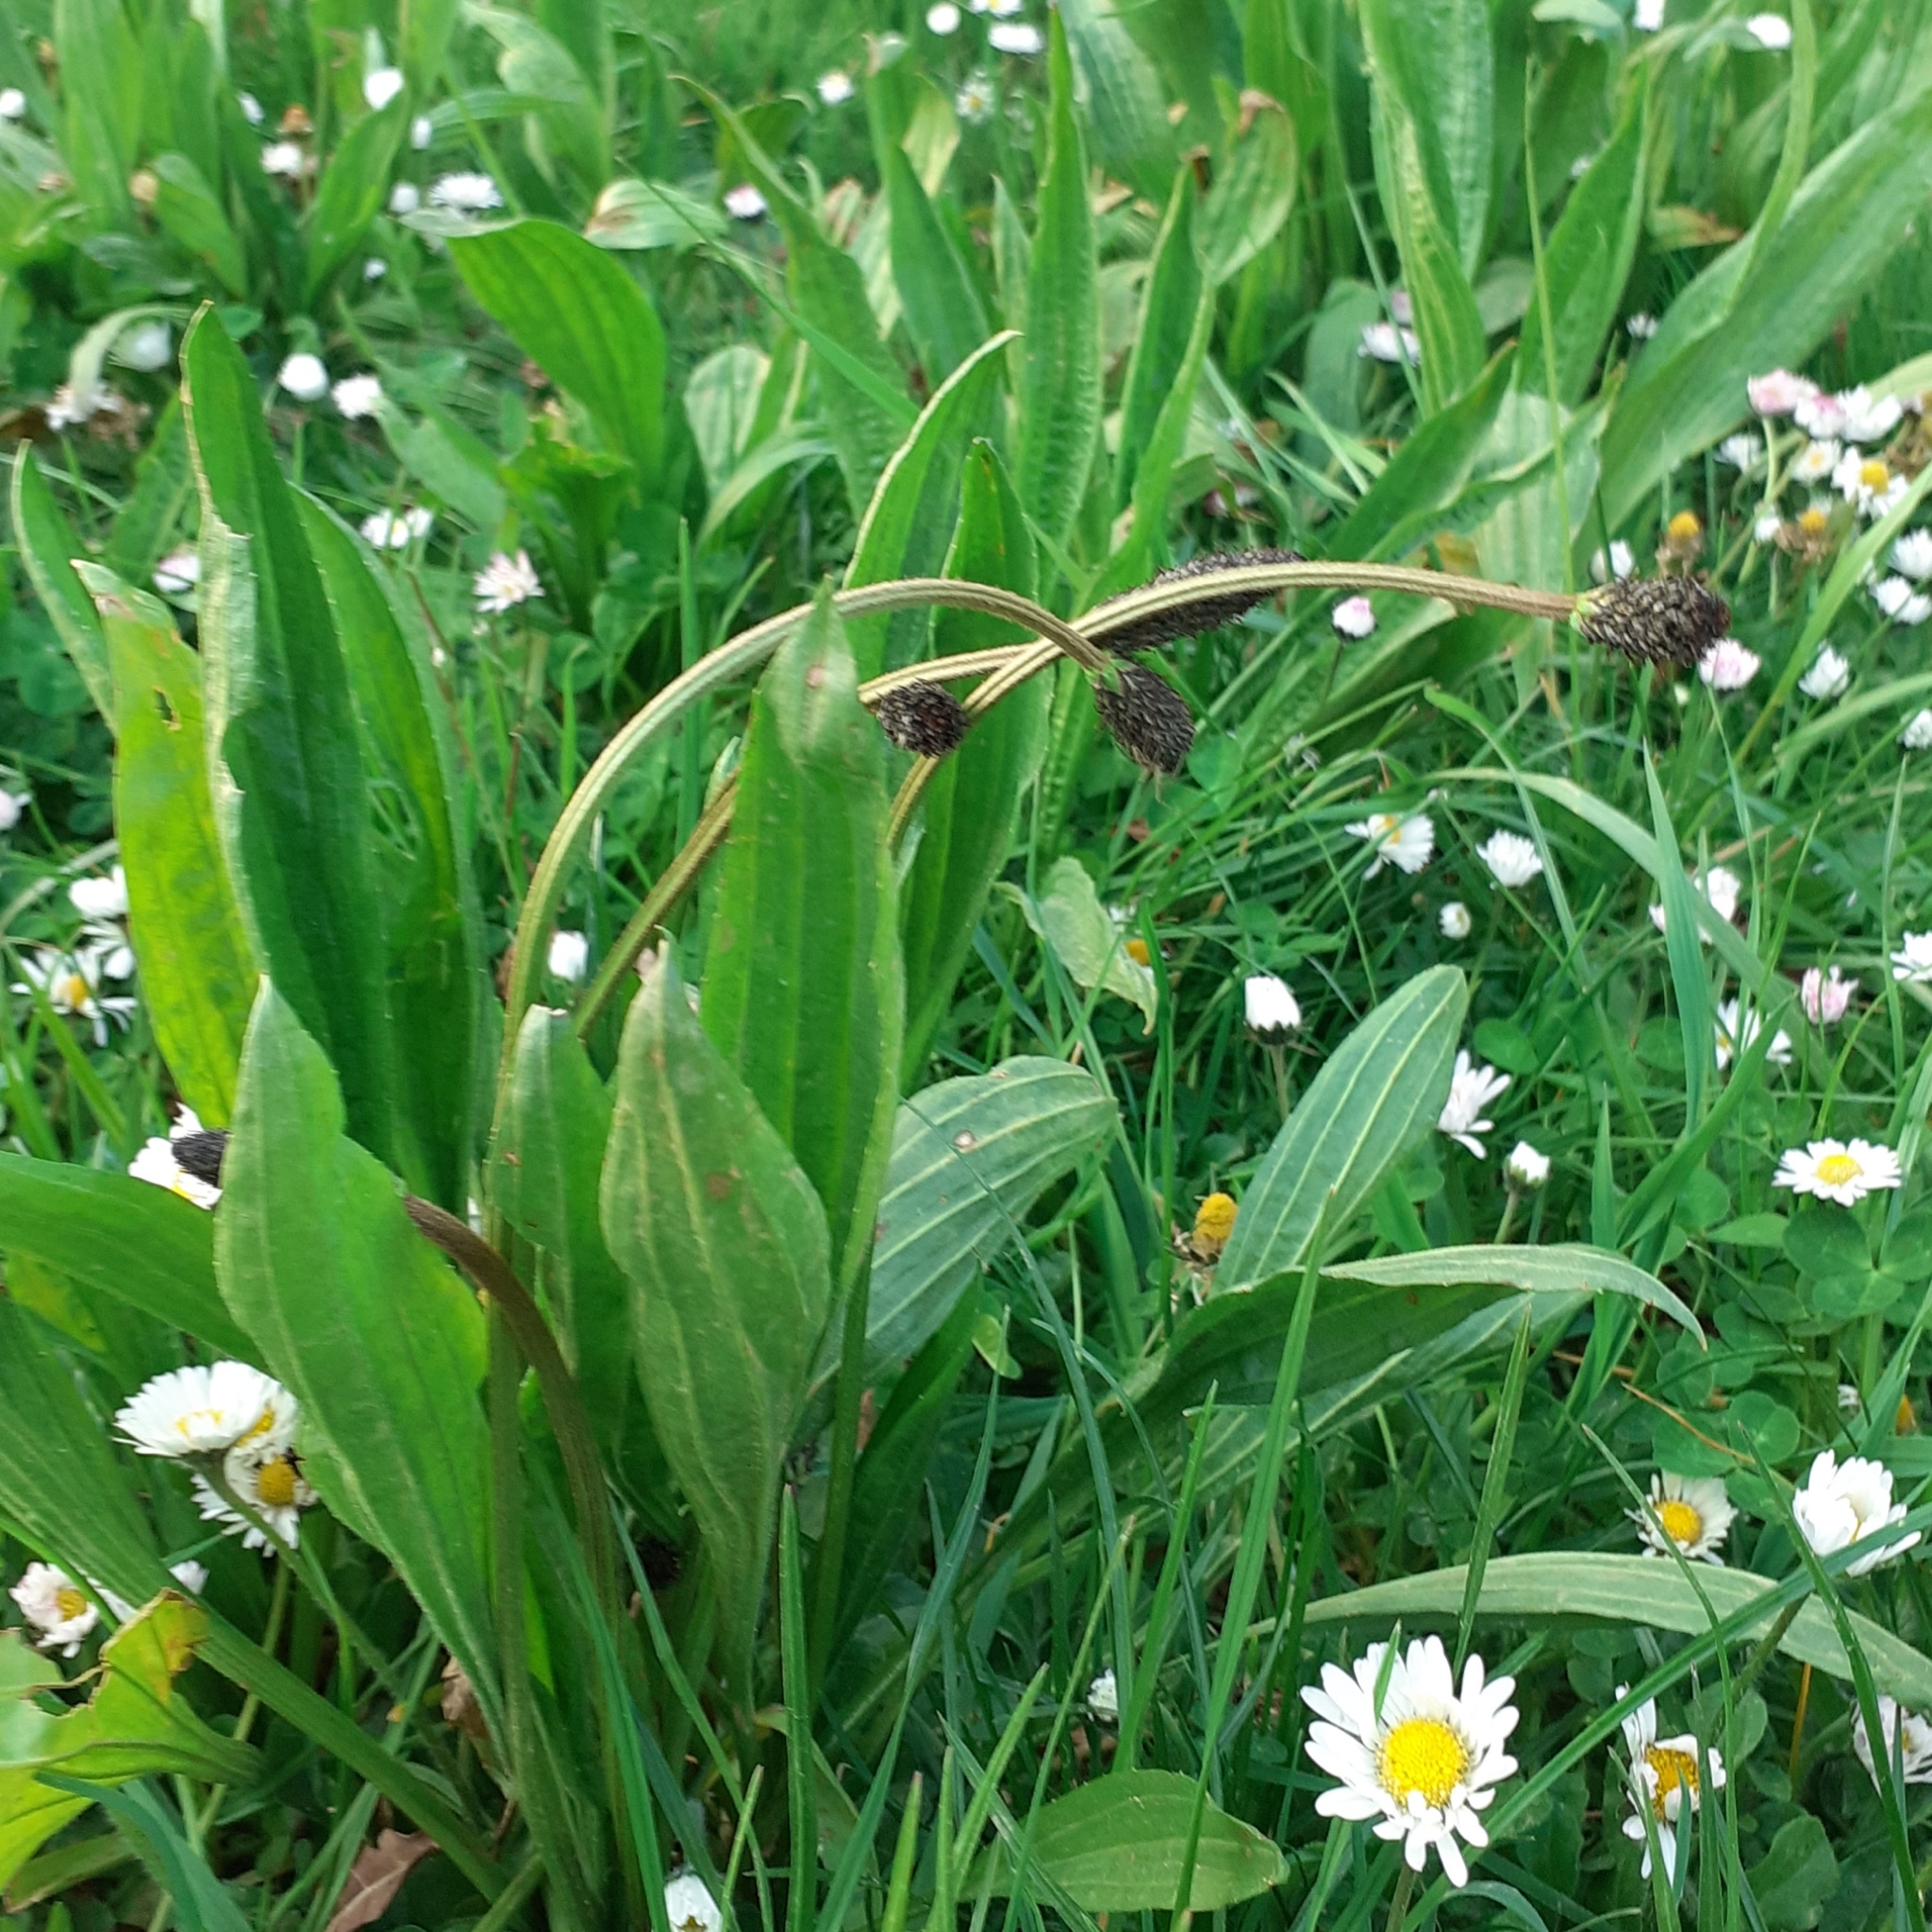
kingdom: Plantae
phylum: Tracheophyta
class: Magnoliopsida
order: Lamiales
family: Plantaginaceae
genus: Plantago
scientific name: Plantago lanceolata
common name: Ribwort plantain
